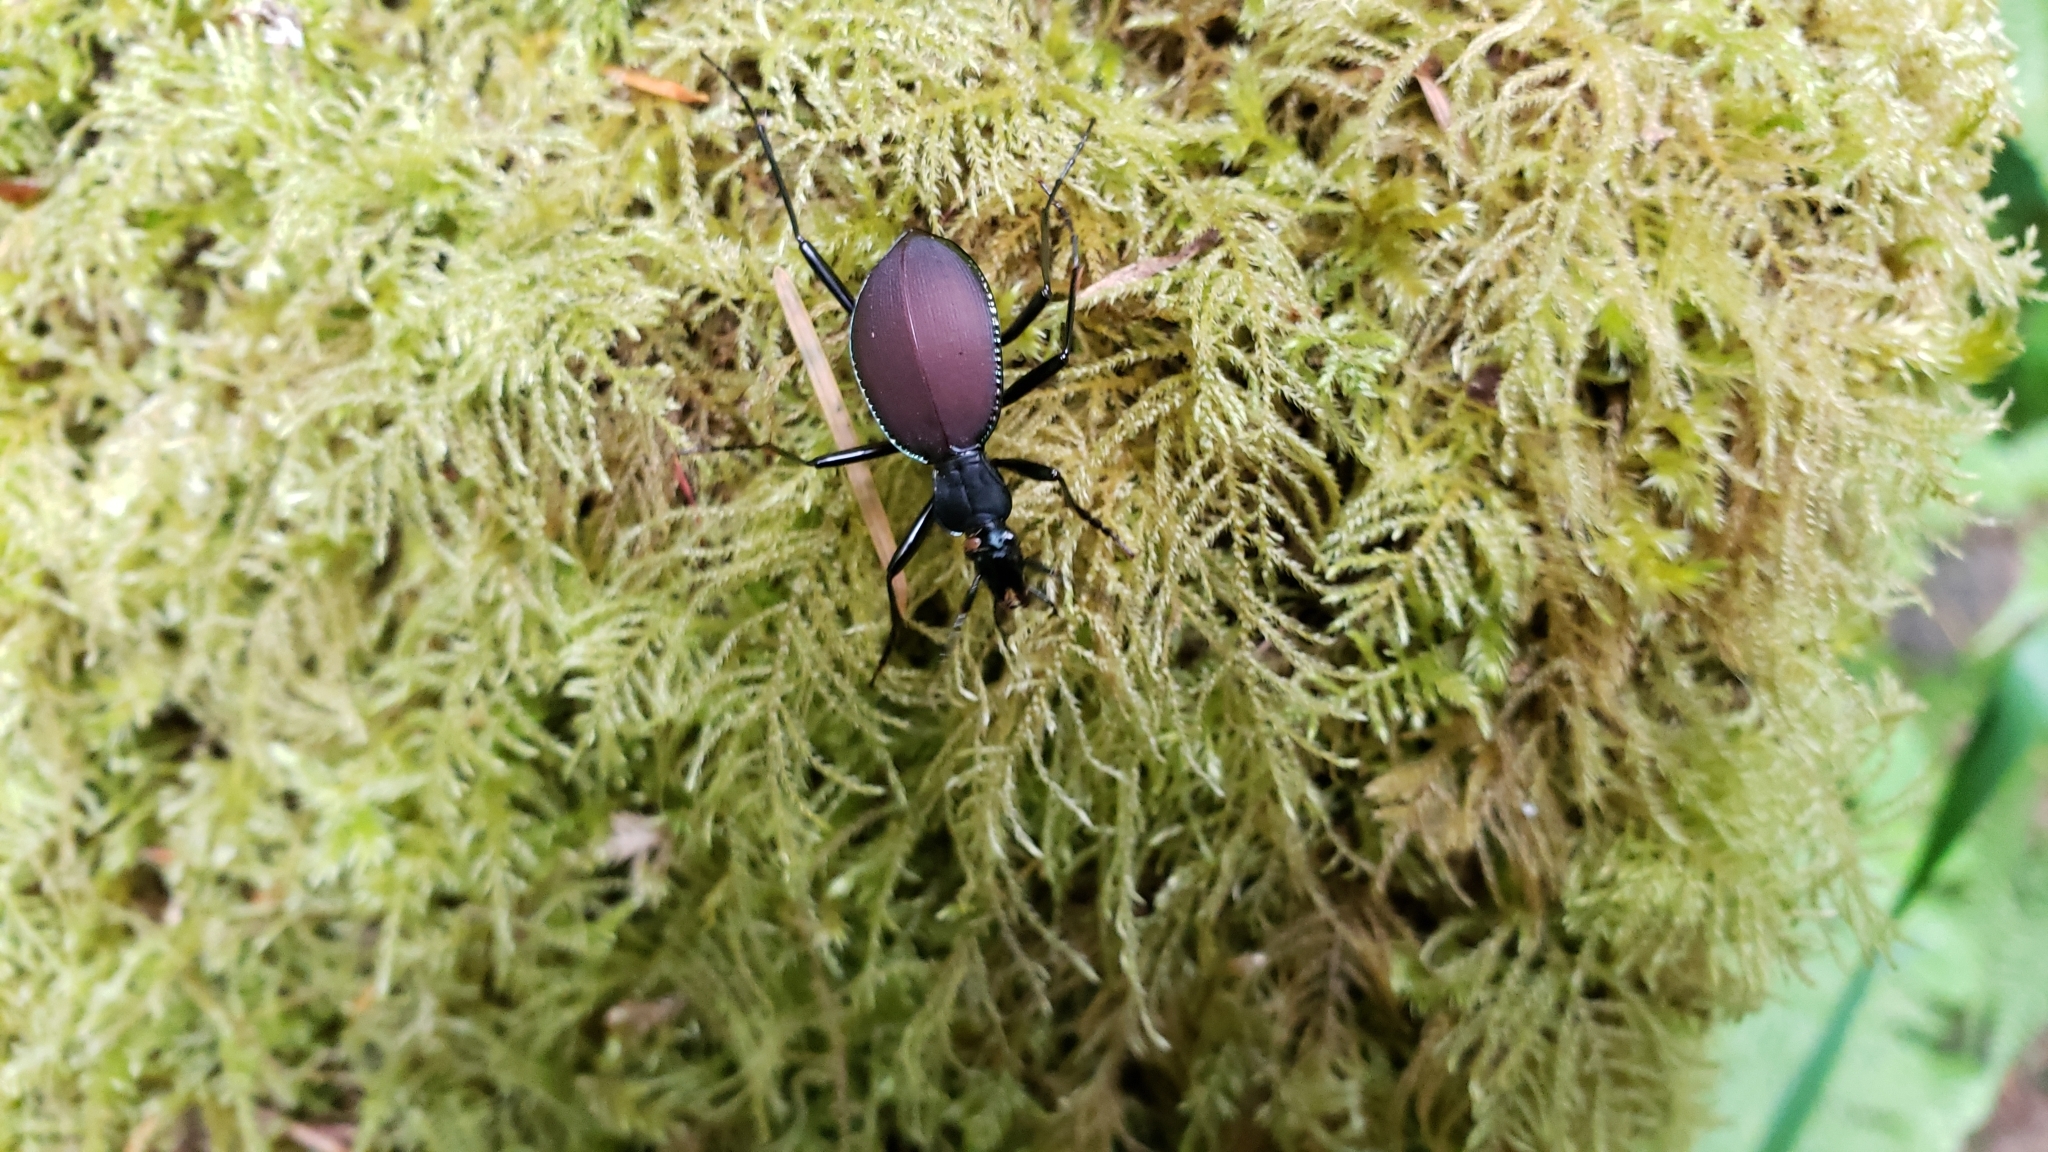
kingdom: Animalia
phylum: Arthropoda
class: Insecta
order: Coleoptera
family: Carabidae
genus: Scaphinotus
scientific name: Scaphinotus angusticollis
